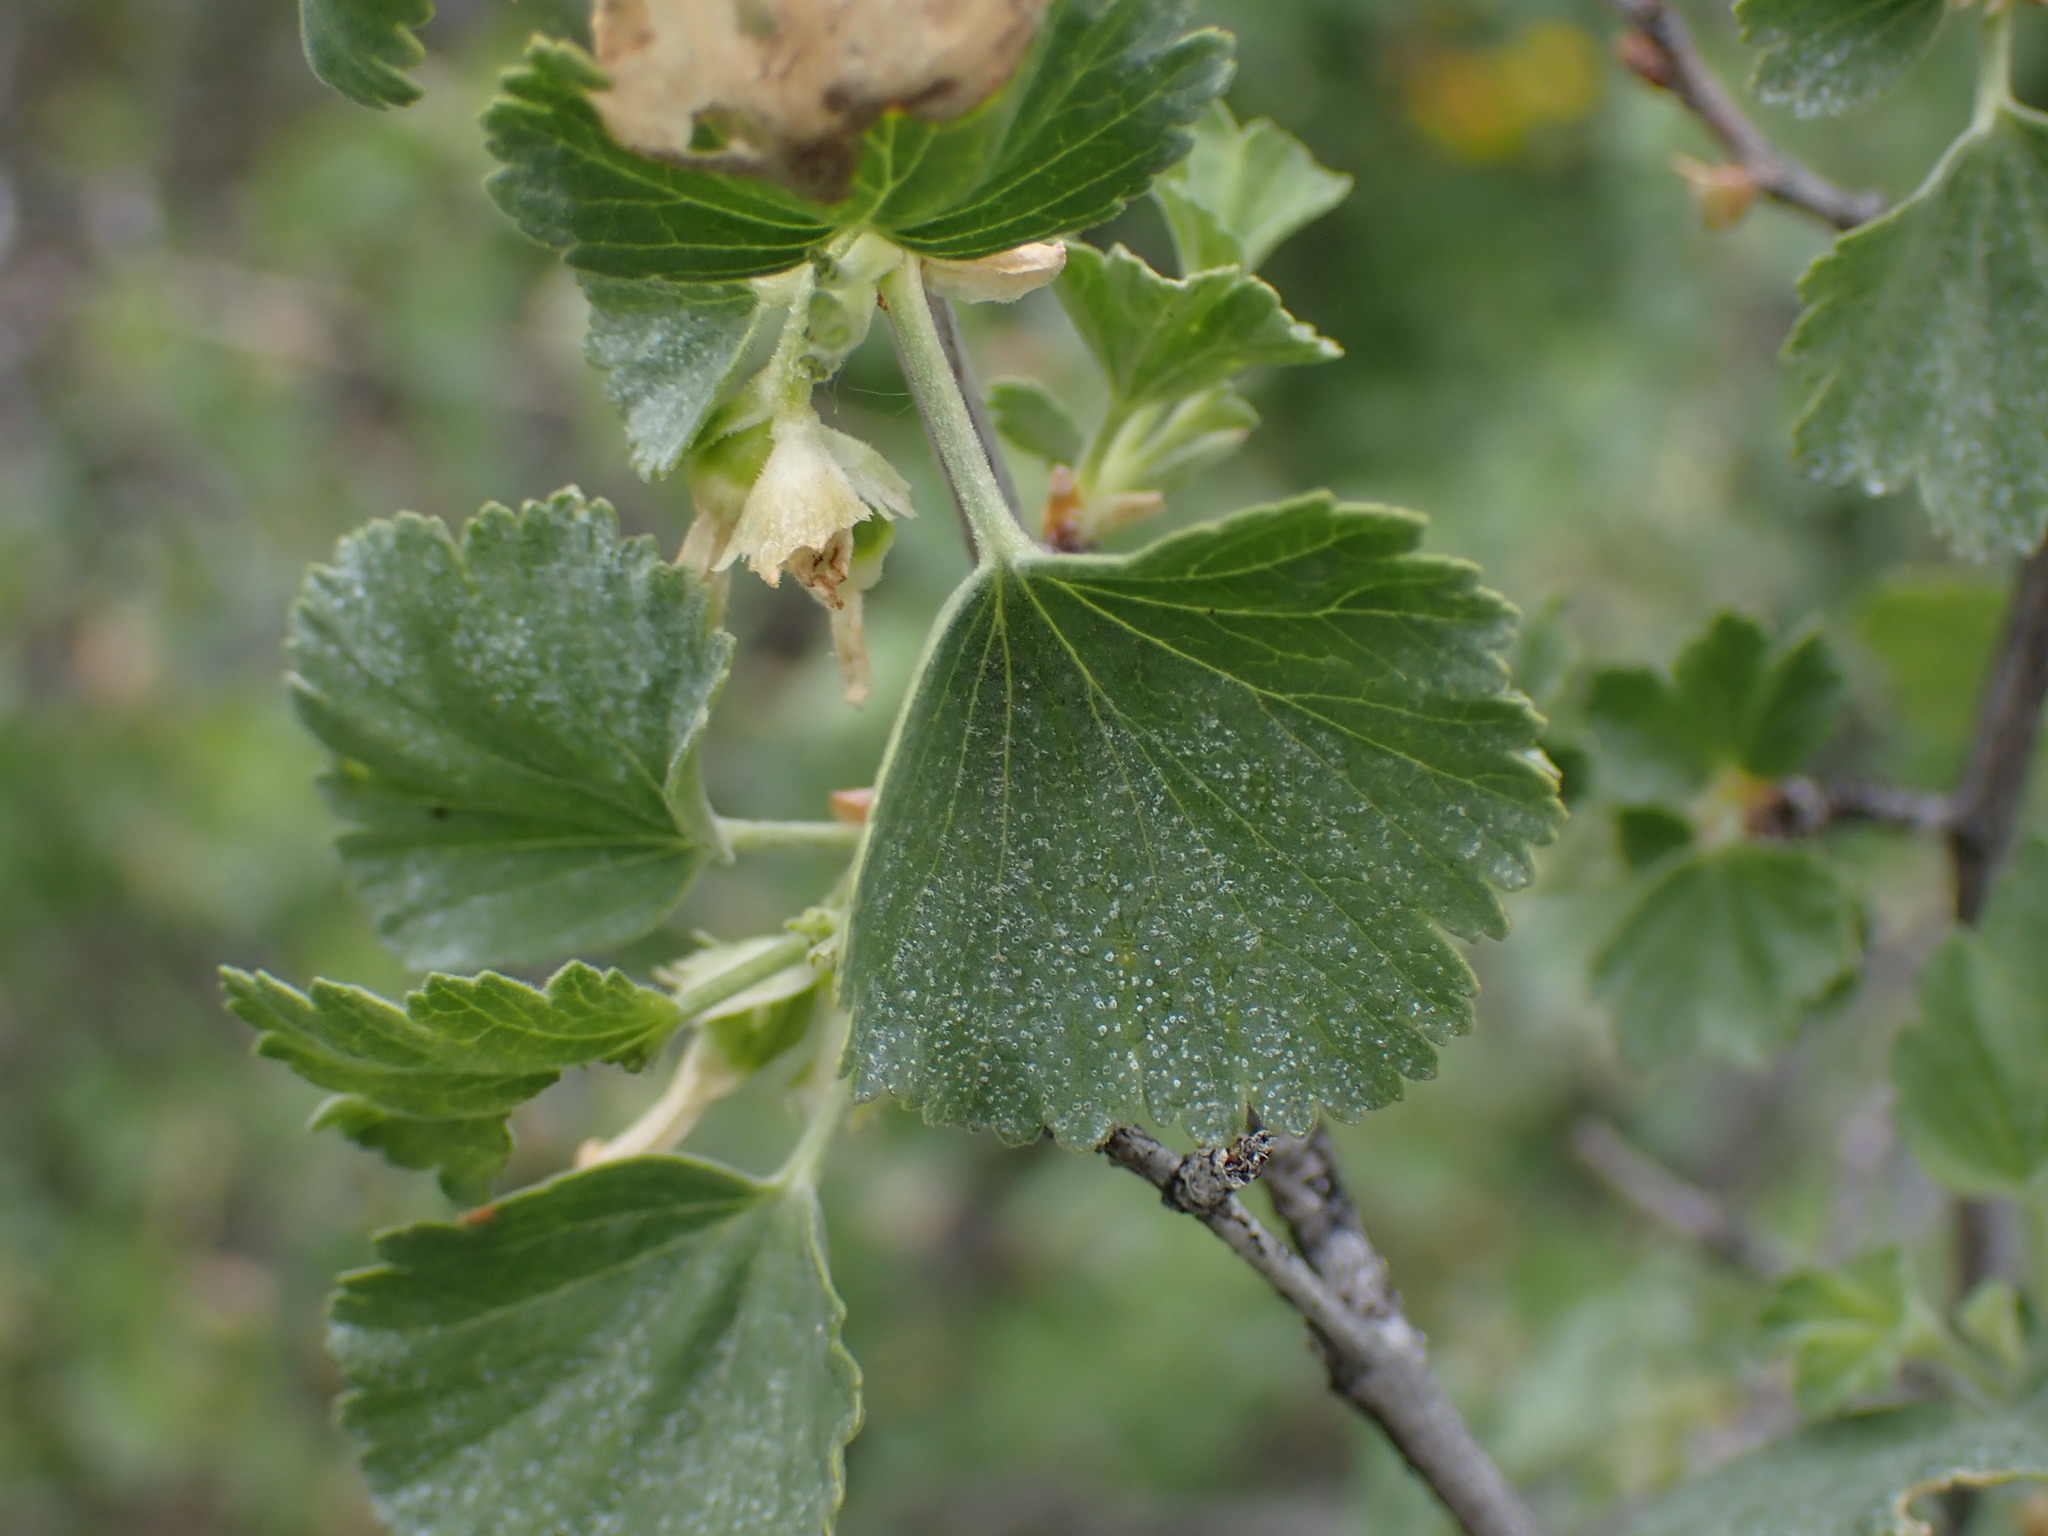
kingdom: Plantae
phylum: Tracheophyta
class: Magnoliopsida
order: Saxifragales
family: Grossulariaceae
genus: Ribes
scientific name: Ribes cereum
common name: Wax currant
